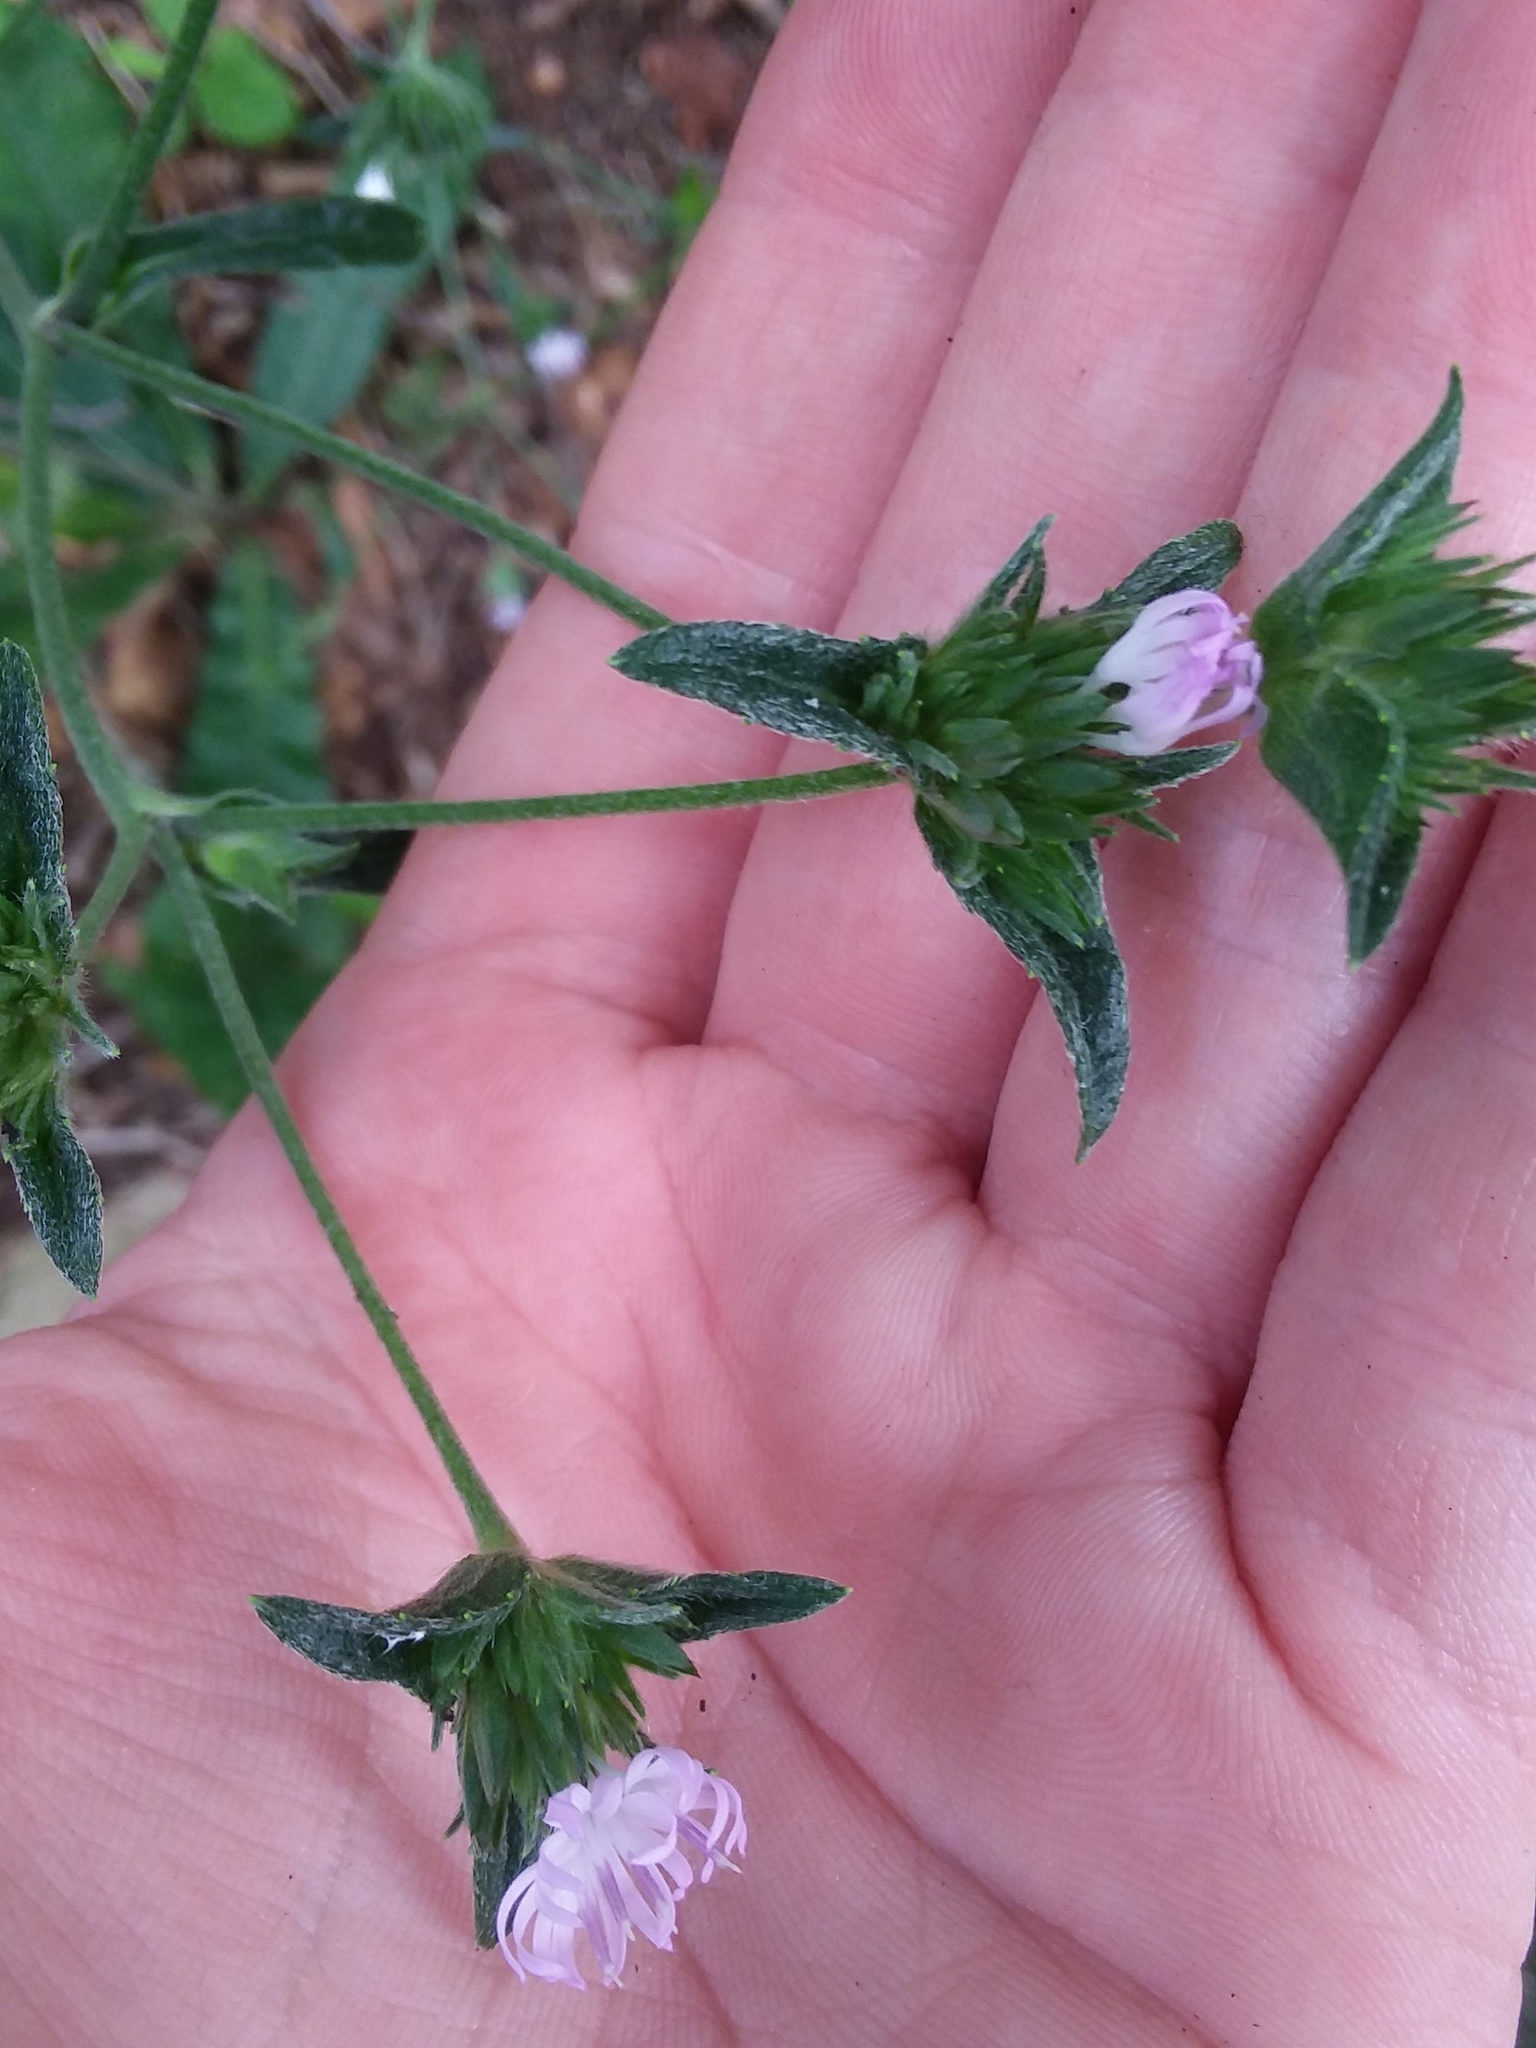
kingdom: Plantae
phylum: Tracheophyta
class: Magnoliopsida
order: Asterales
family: Asteraceae
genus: Elephantopus
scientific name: Elephantopus tomentosus
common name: Tobacco-weed
